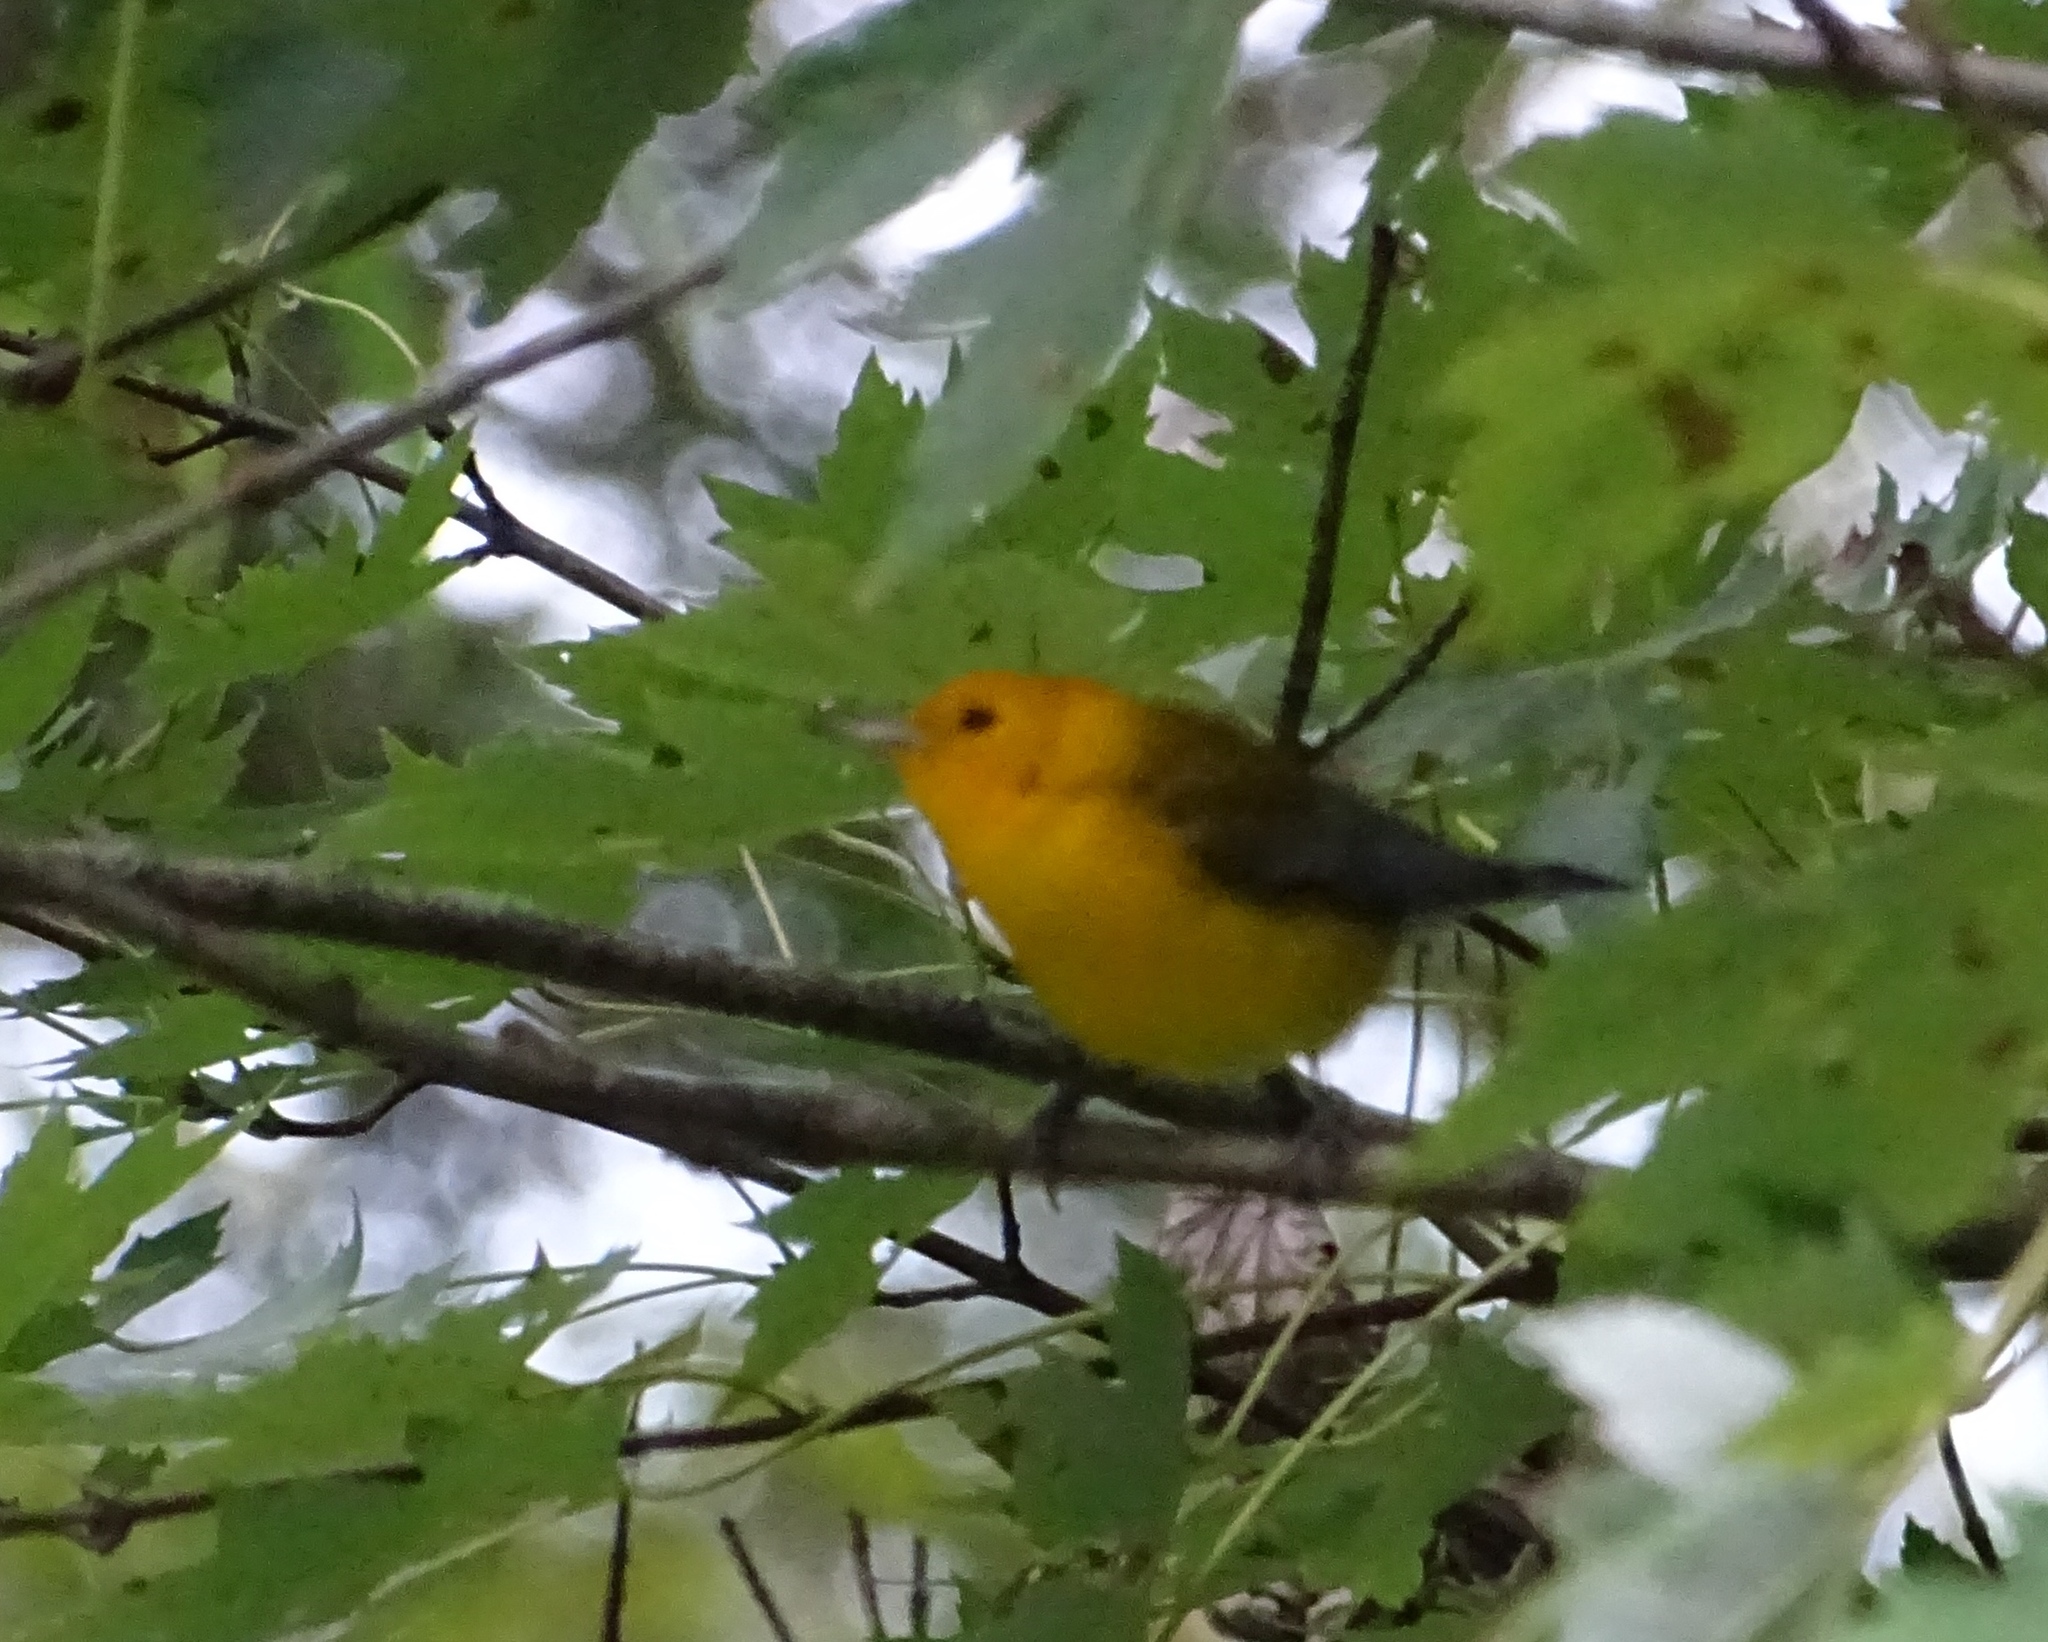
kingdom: Animalia
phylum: Chordata
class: Aves
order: Passeriformes
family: Parulidae
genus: Protonotaria
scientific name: Protonotaria citrea
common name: Prothonotary warbler
